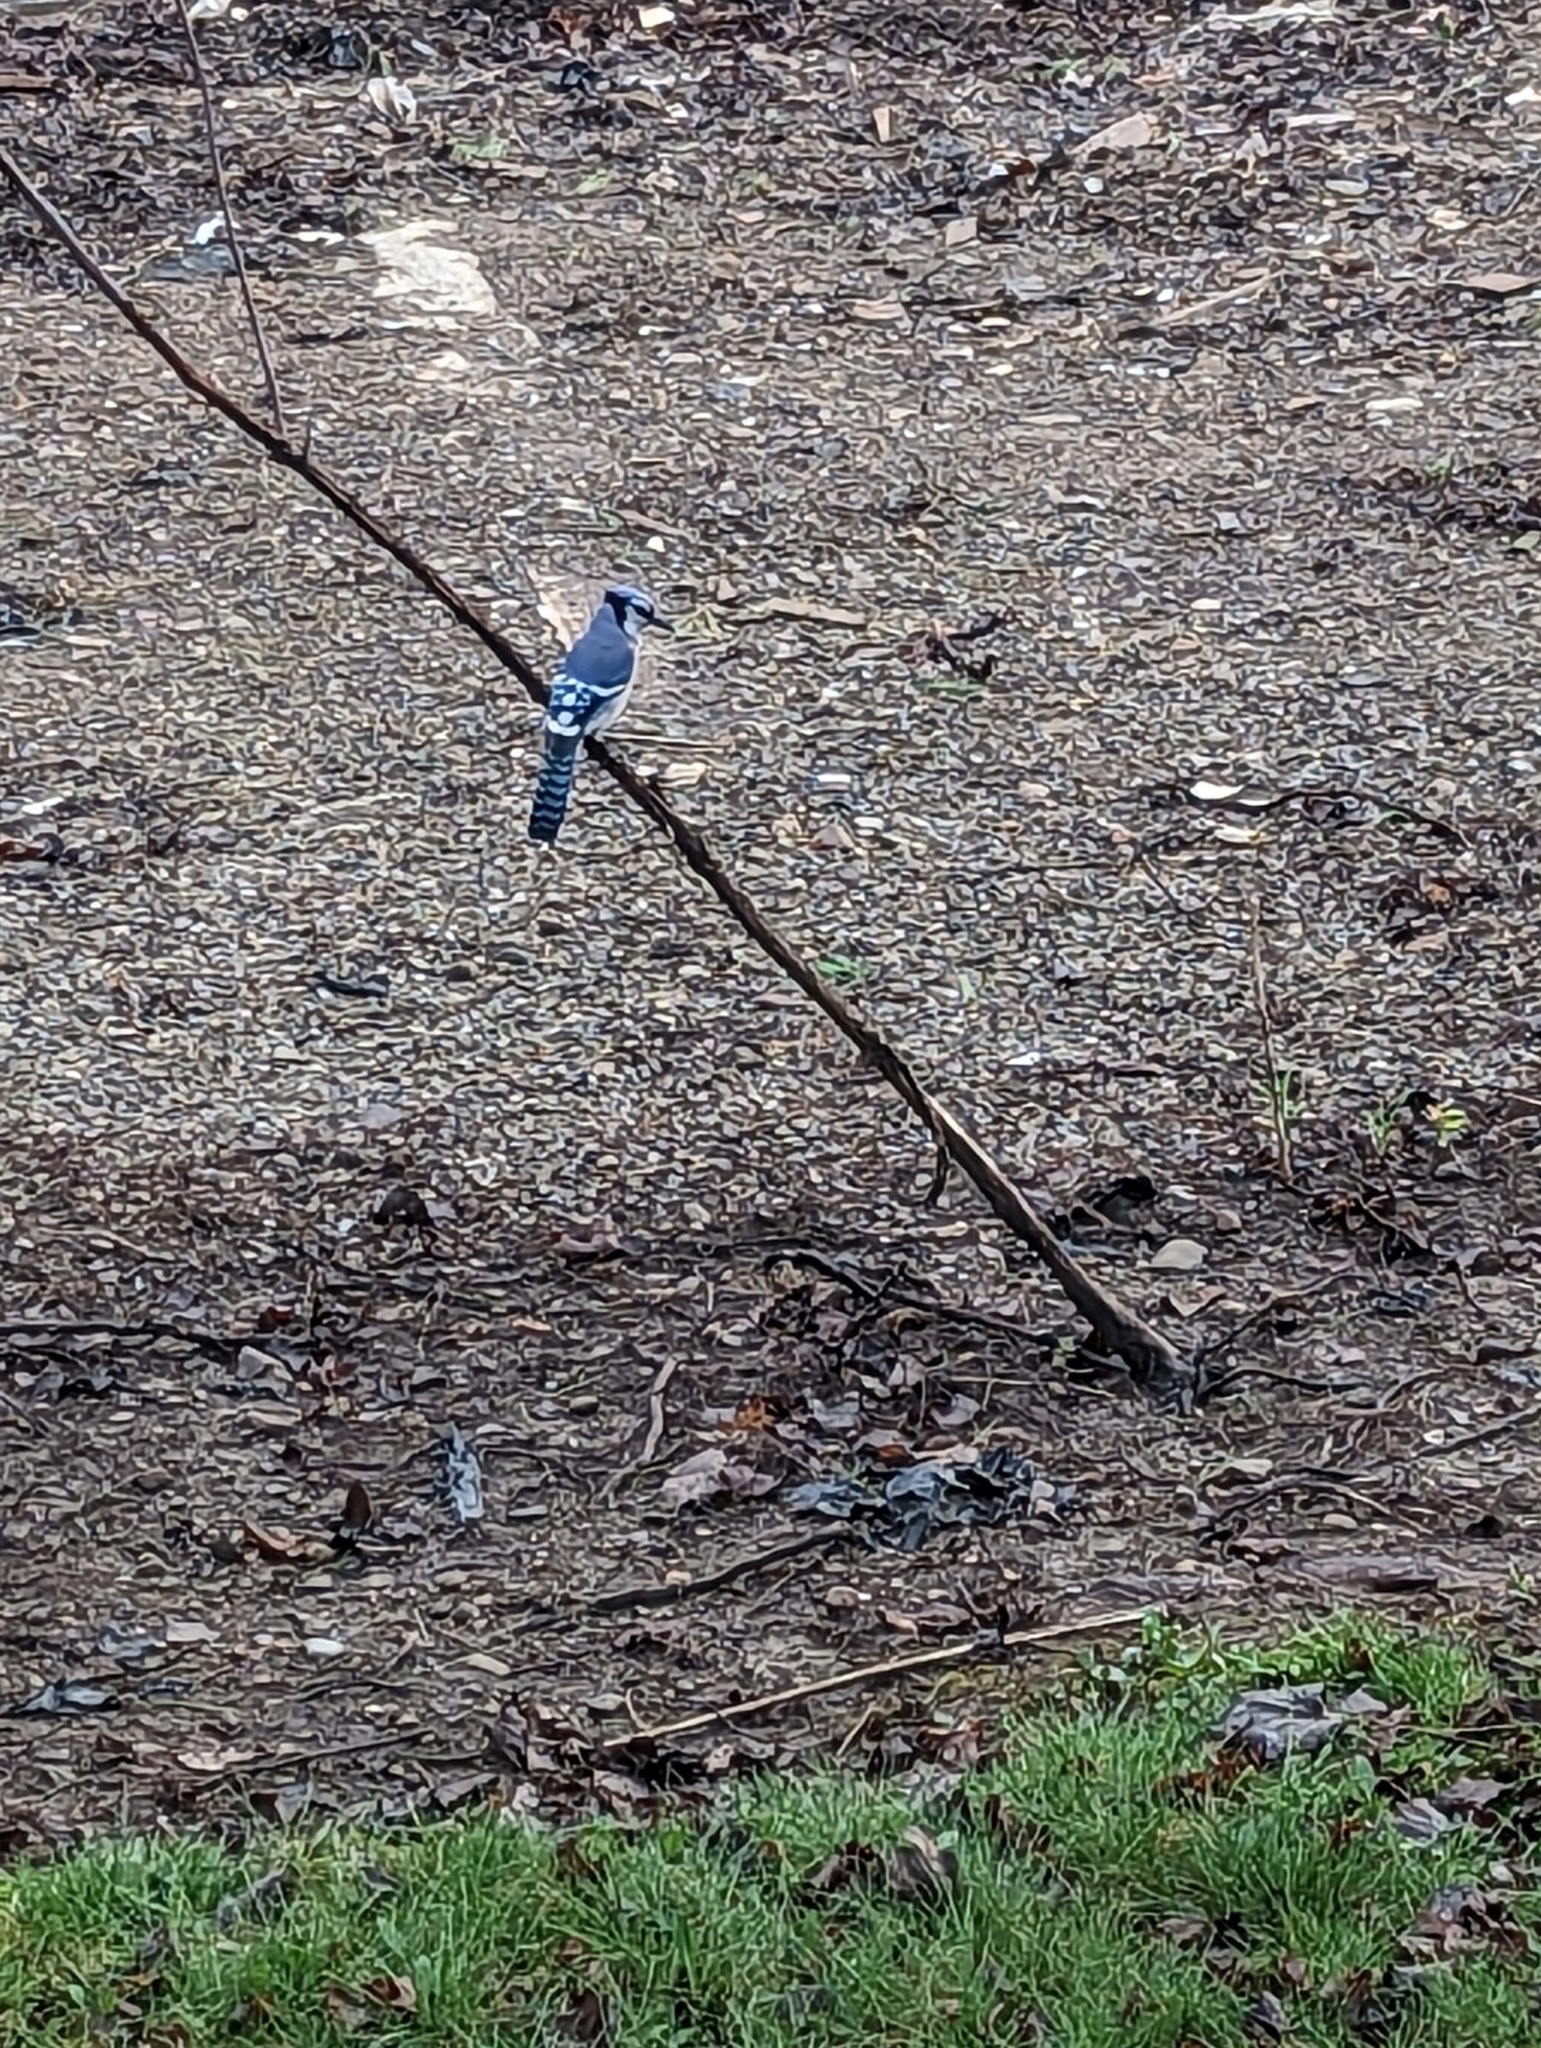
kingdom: Animalia
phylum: Chordata
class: Aves
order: Passeriformes
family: Corvidae
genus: Cyanocitta
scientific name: Cyanocitta cristata
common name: Blue jay
